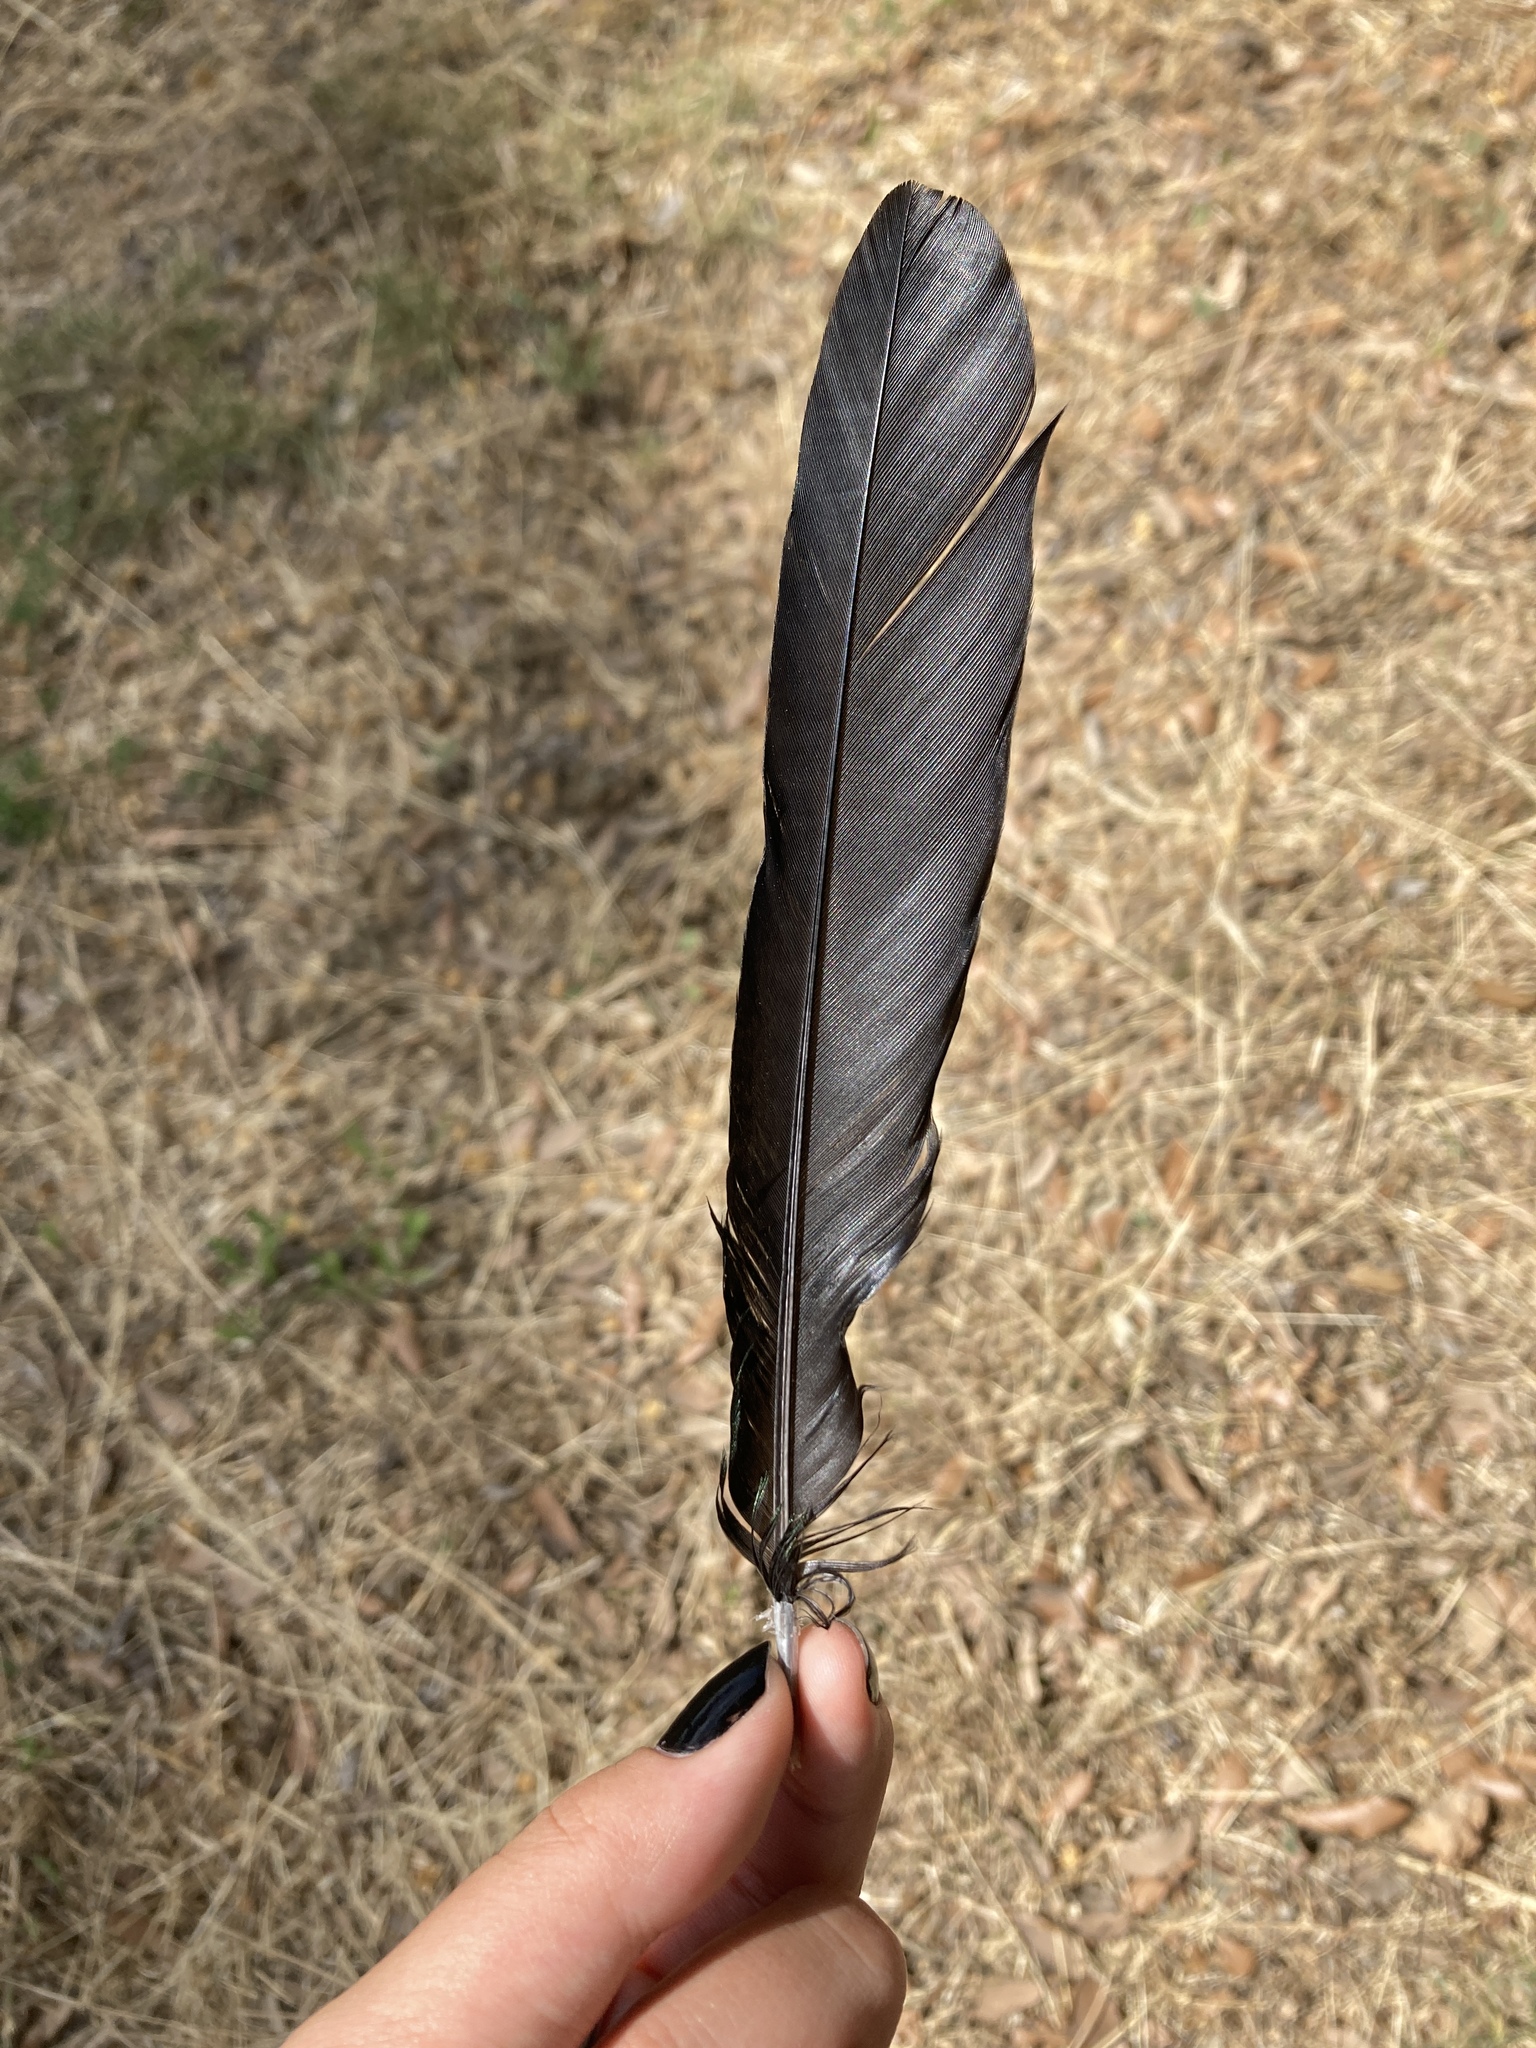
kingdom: Animalia
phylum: Chordata
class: Aves
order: Passeriformes
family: Corvidae
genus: Pica
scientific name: Pica pica
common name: Eurasian magpie
